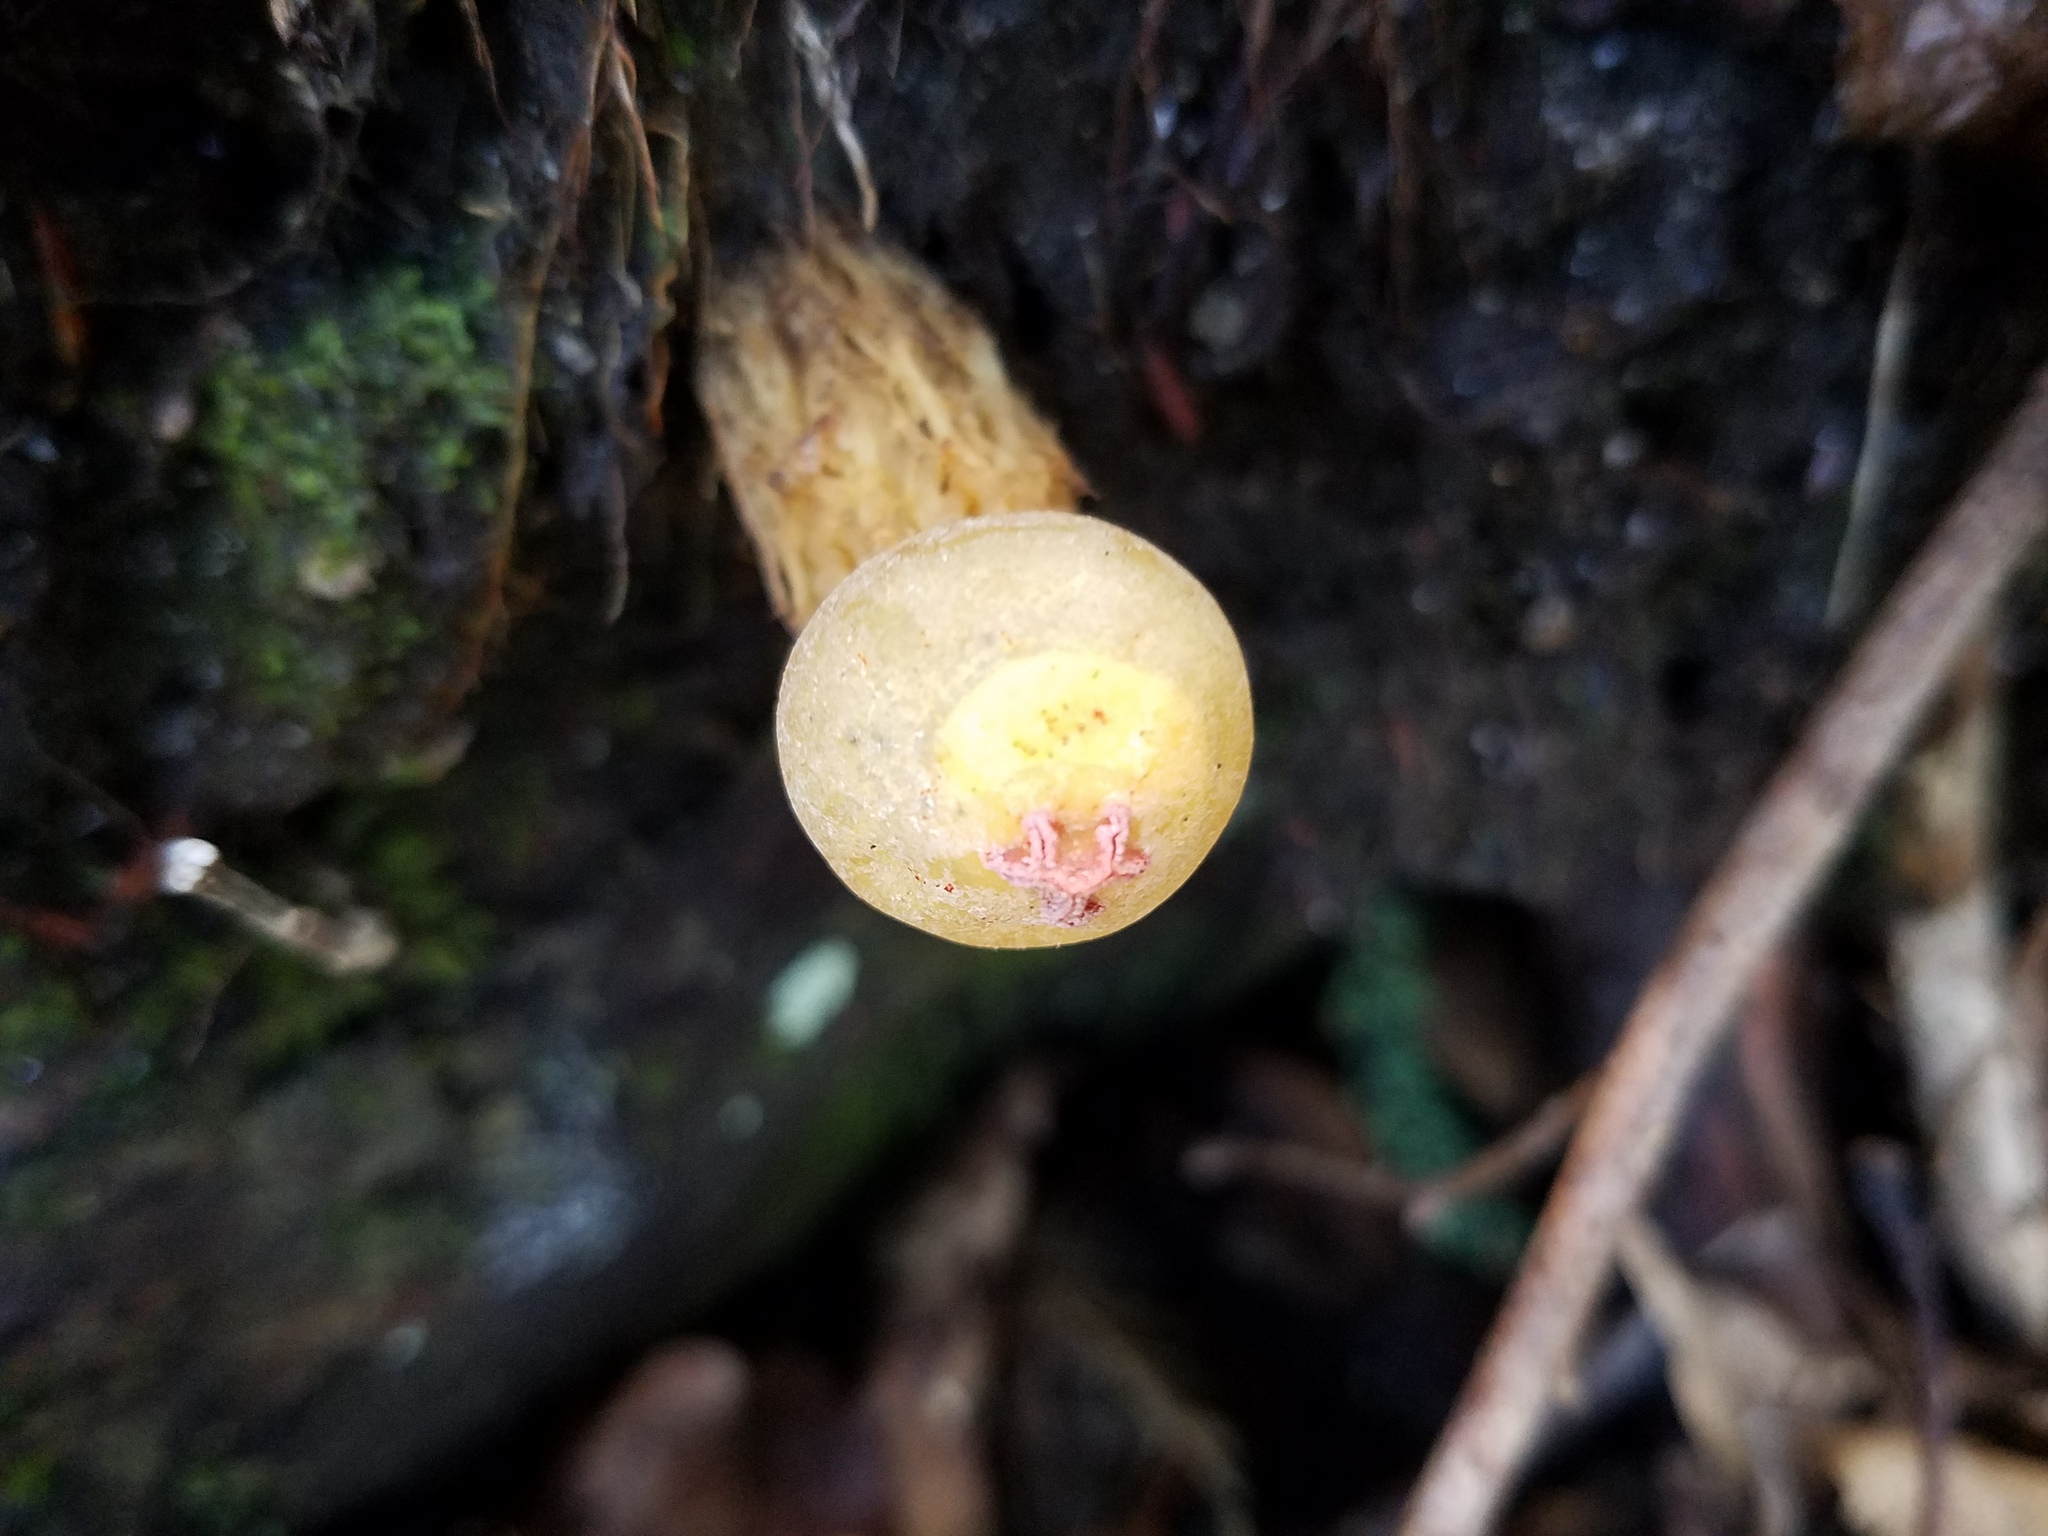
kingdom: Fungi
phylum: Basidiomycota
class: Agaricomycetes
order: Boletales
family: Calostomataceae
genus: Calostoma
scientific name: Calostoma cinnabarinum
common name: Stalked puffball-in-aspic
